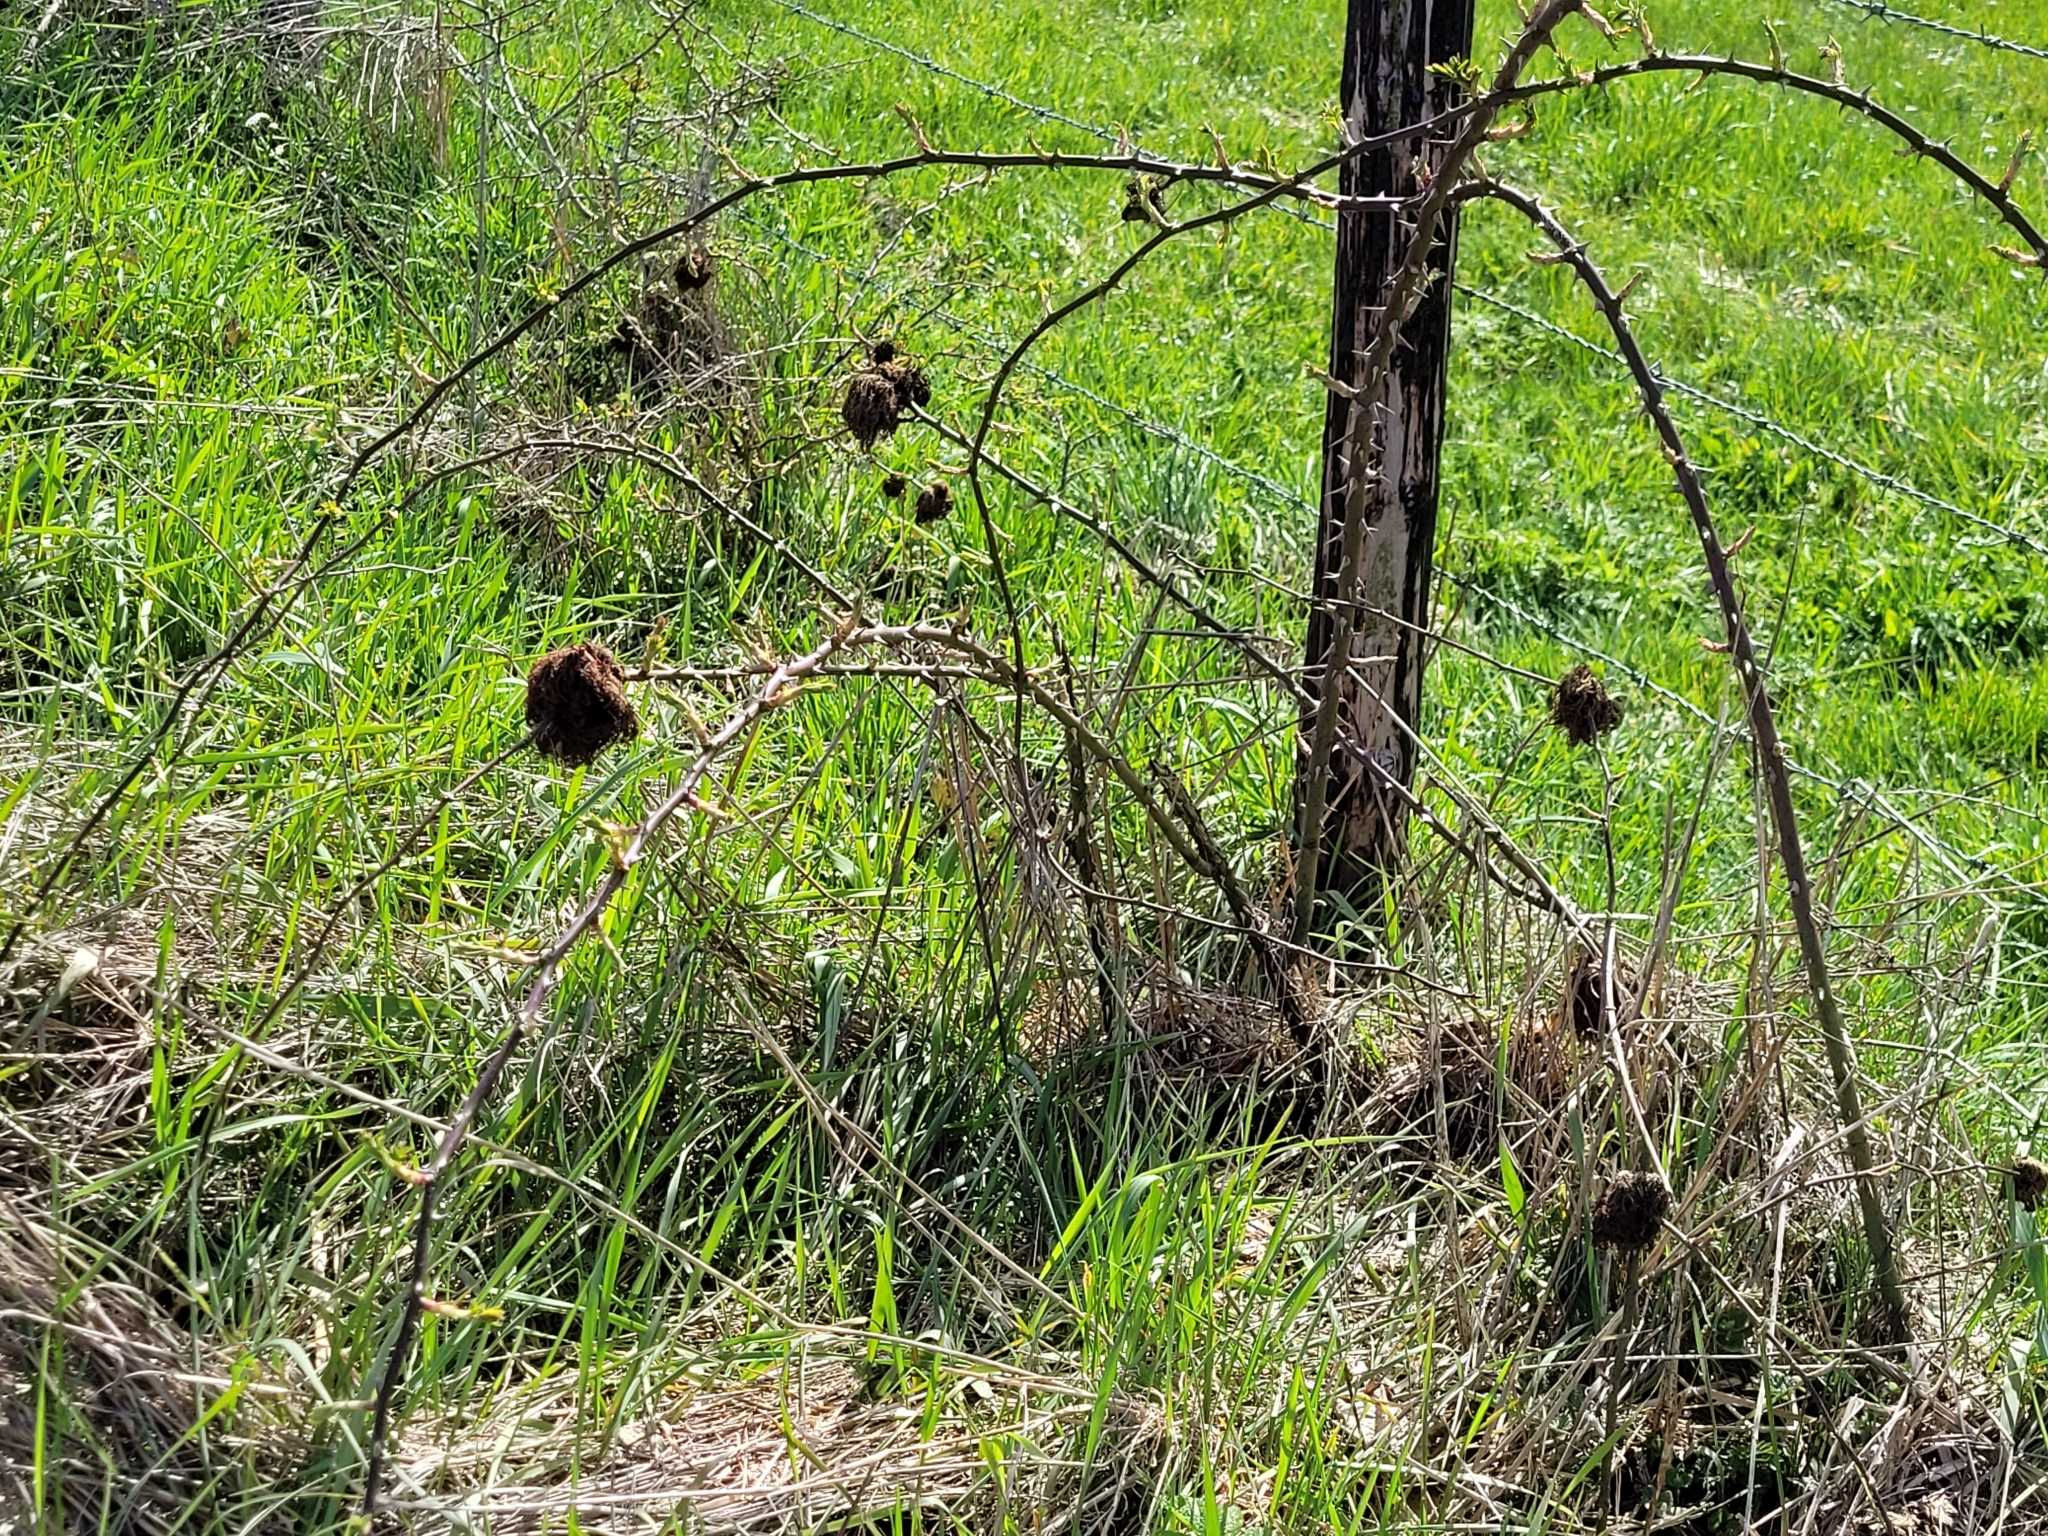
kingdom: Animalia
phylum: Arthropoda
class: Insecta
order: Hymenoptera
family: Cynipidae
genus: Diplolepis
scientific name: Diplolepis rosae
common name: Bedeguar gall
